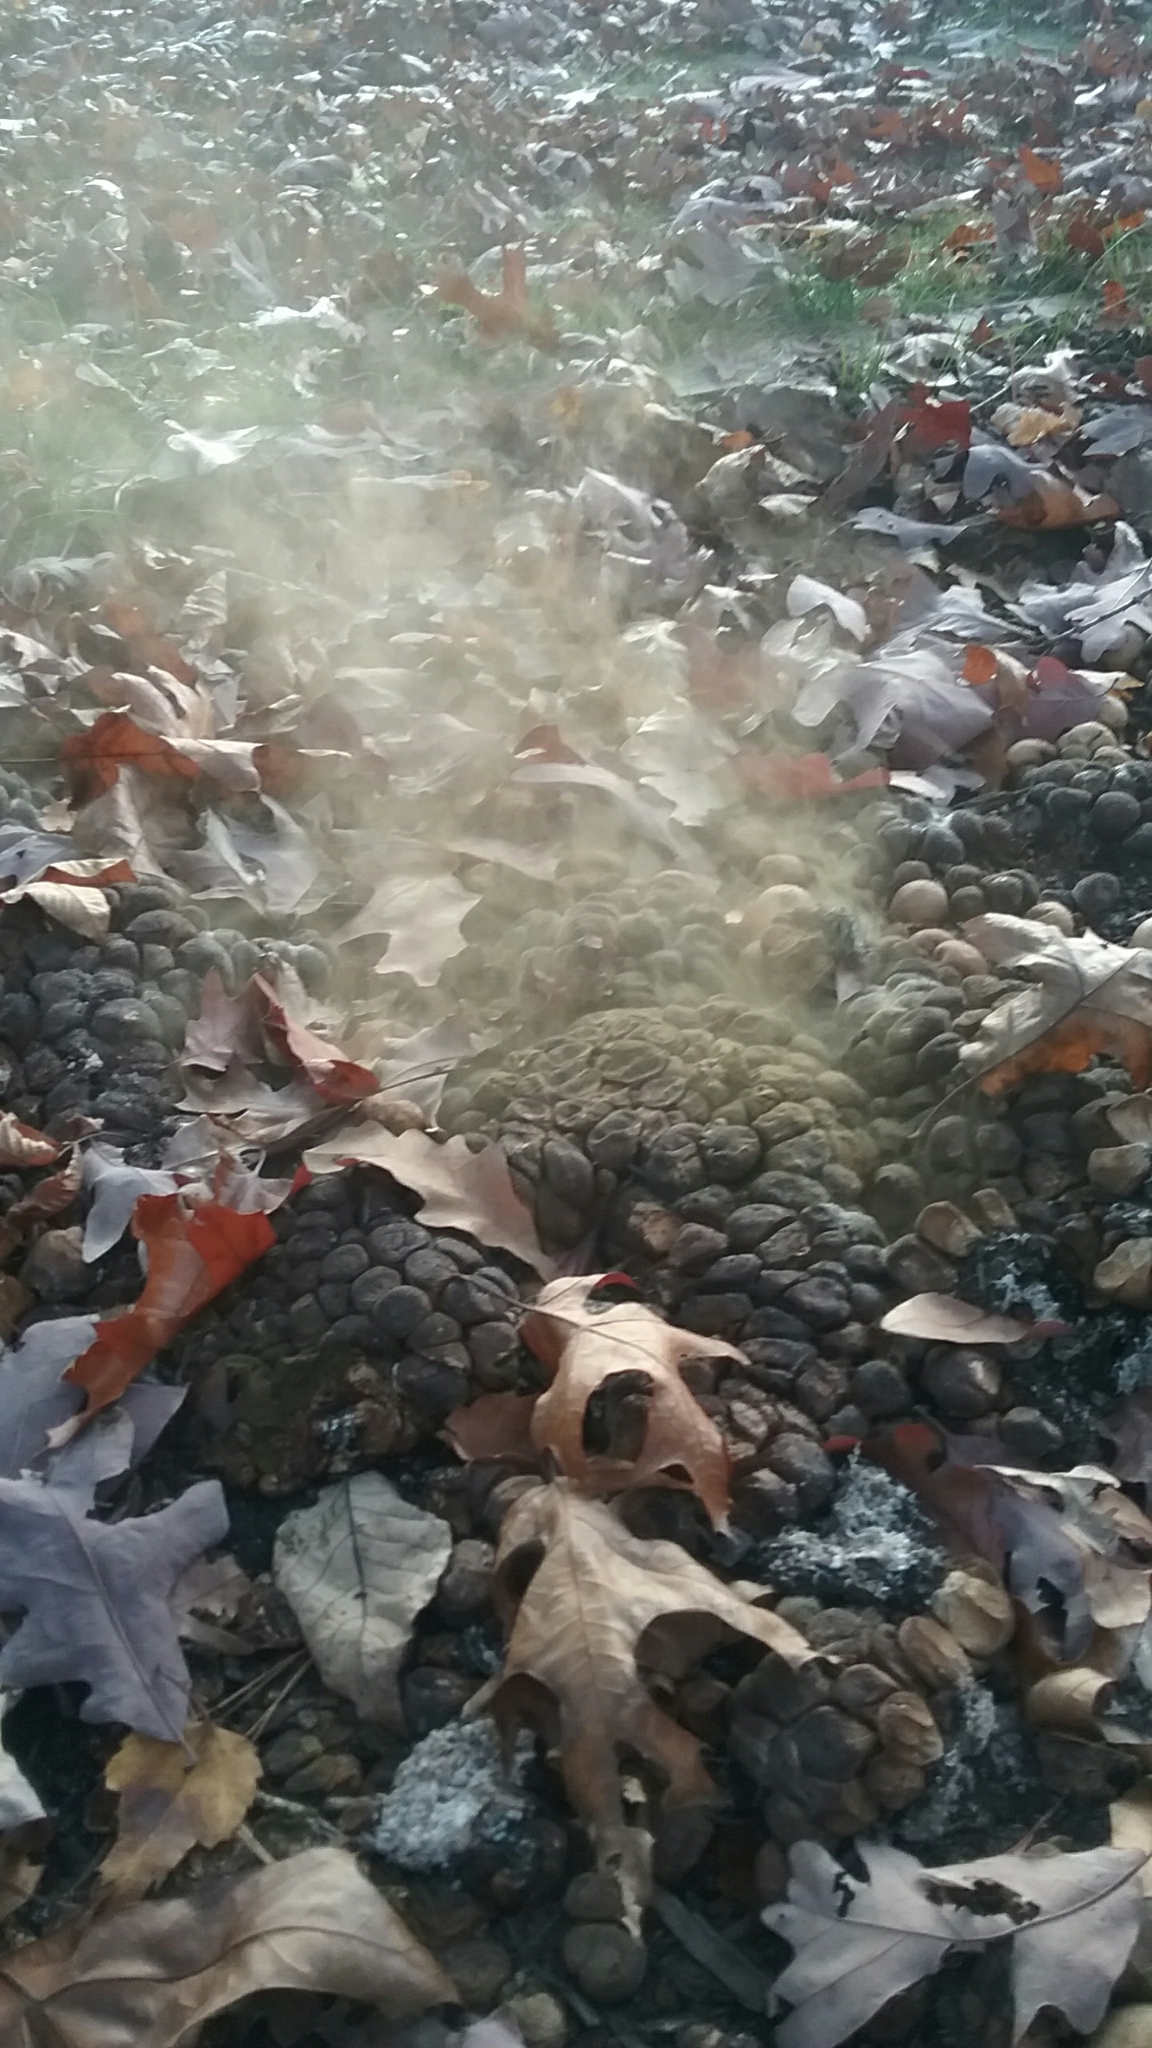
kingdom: Fungi
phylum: Basidiomycota
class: Agaricomycetes
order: Agaricales
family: Lycoperdaceae
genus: Apioperdon
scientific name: Apioperdon pyriforme
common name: Pear-shaped puffball
